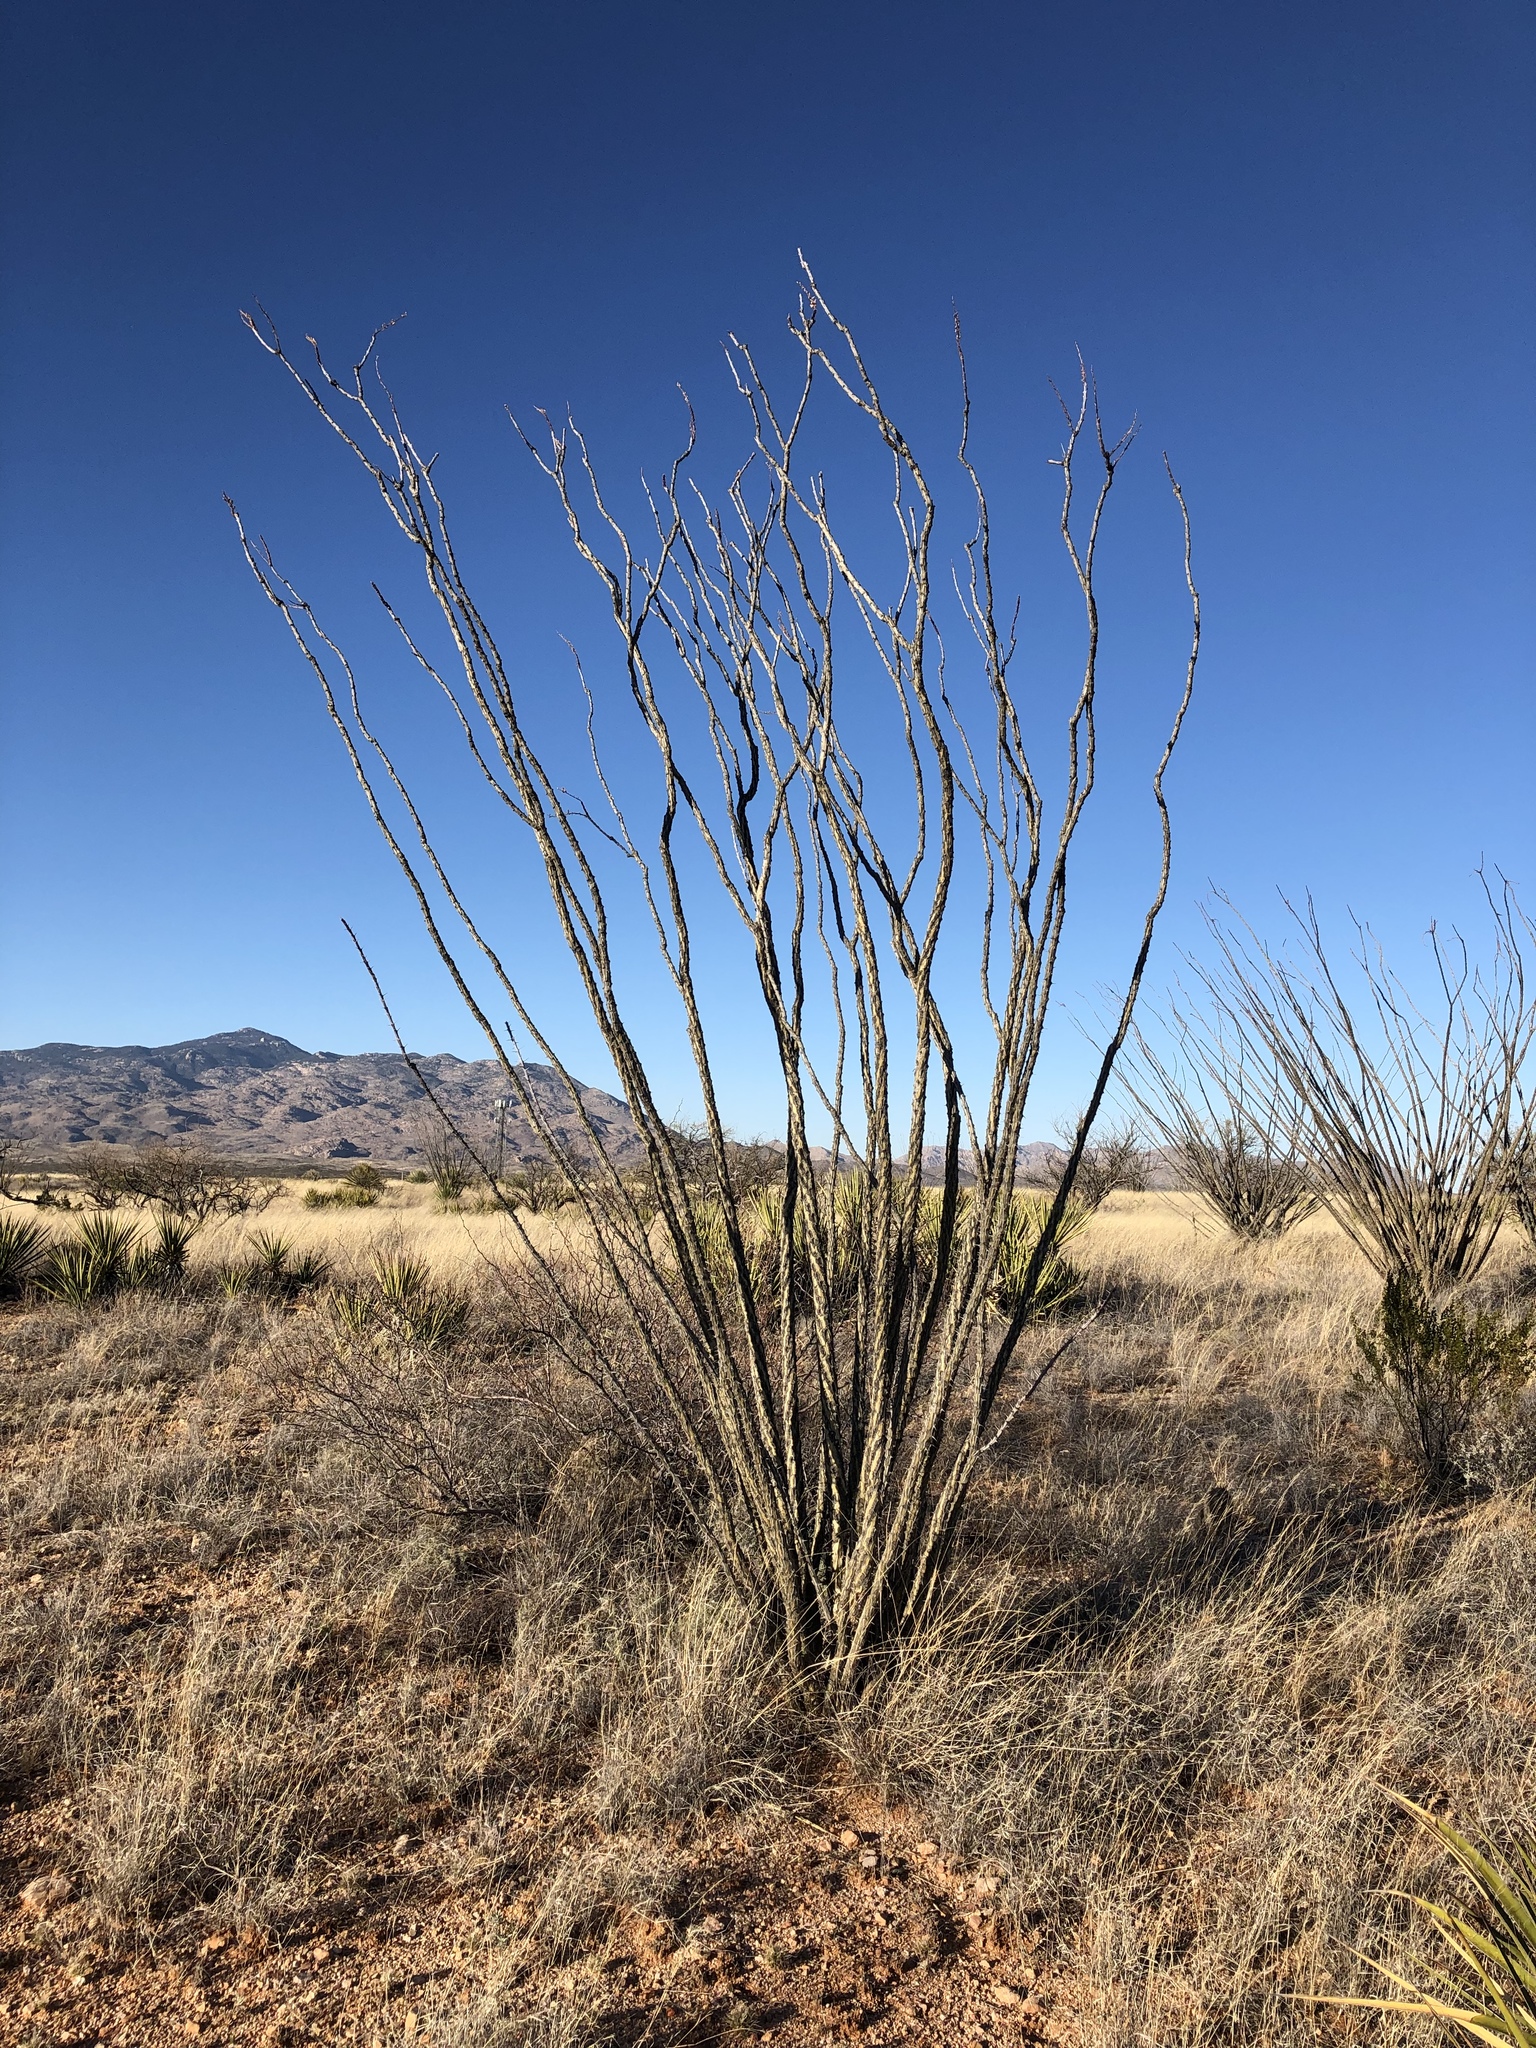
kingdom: Plantae
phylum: Tracheophyta
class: Magnoliopsida
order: Ericales
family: Fouquieriaceae
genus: Fouquieria
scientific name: Fouquieria splendens
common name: Vine-cactus
